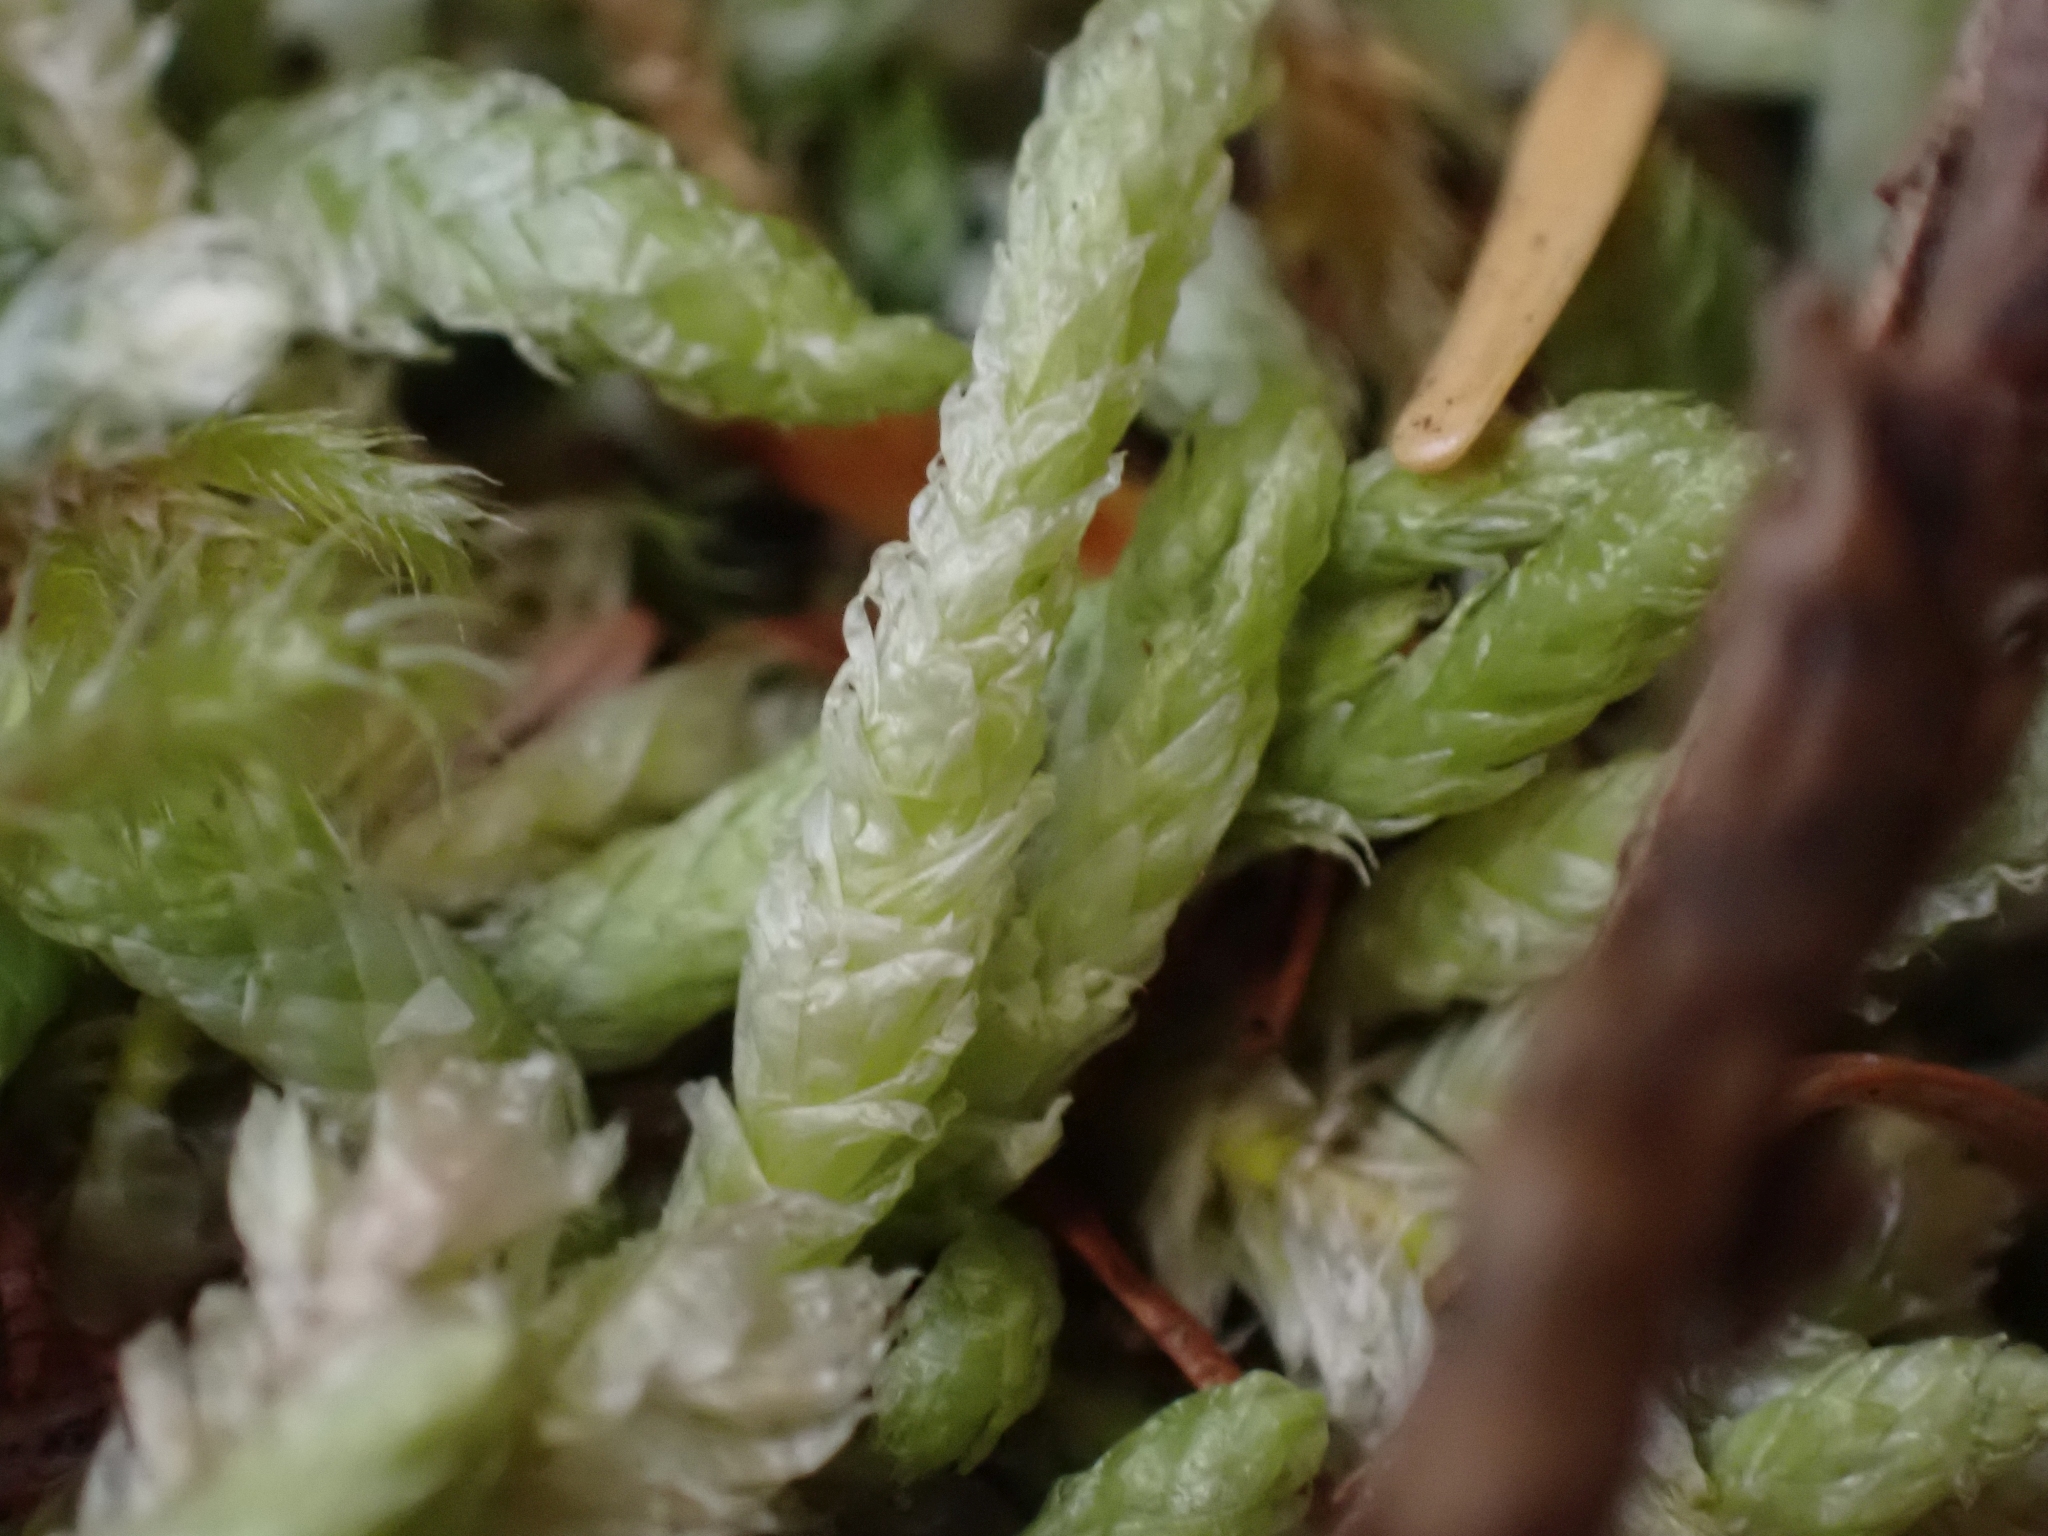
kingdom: Plantae
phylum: Bryophyta
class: Bryopsida
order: Hypnales
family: Plagiotheciaceae
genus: Plagiothecium
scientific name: Plagiothecium undulatum
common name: Waved silk-moss
